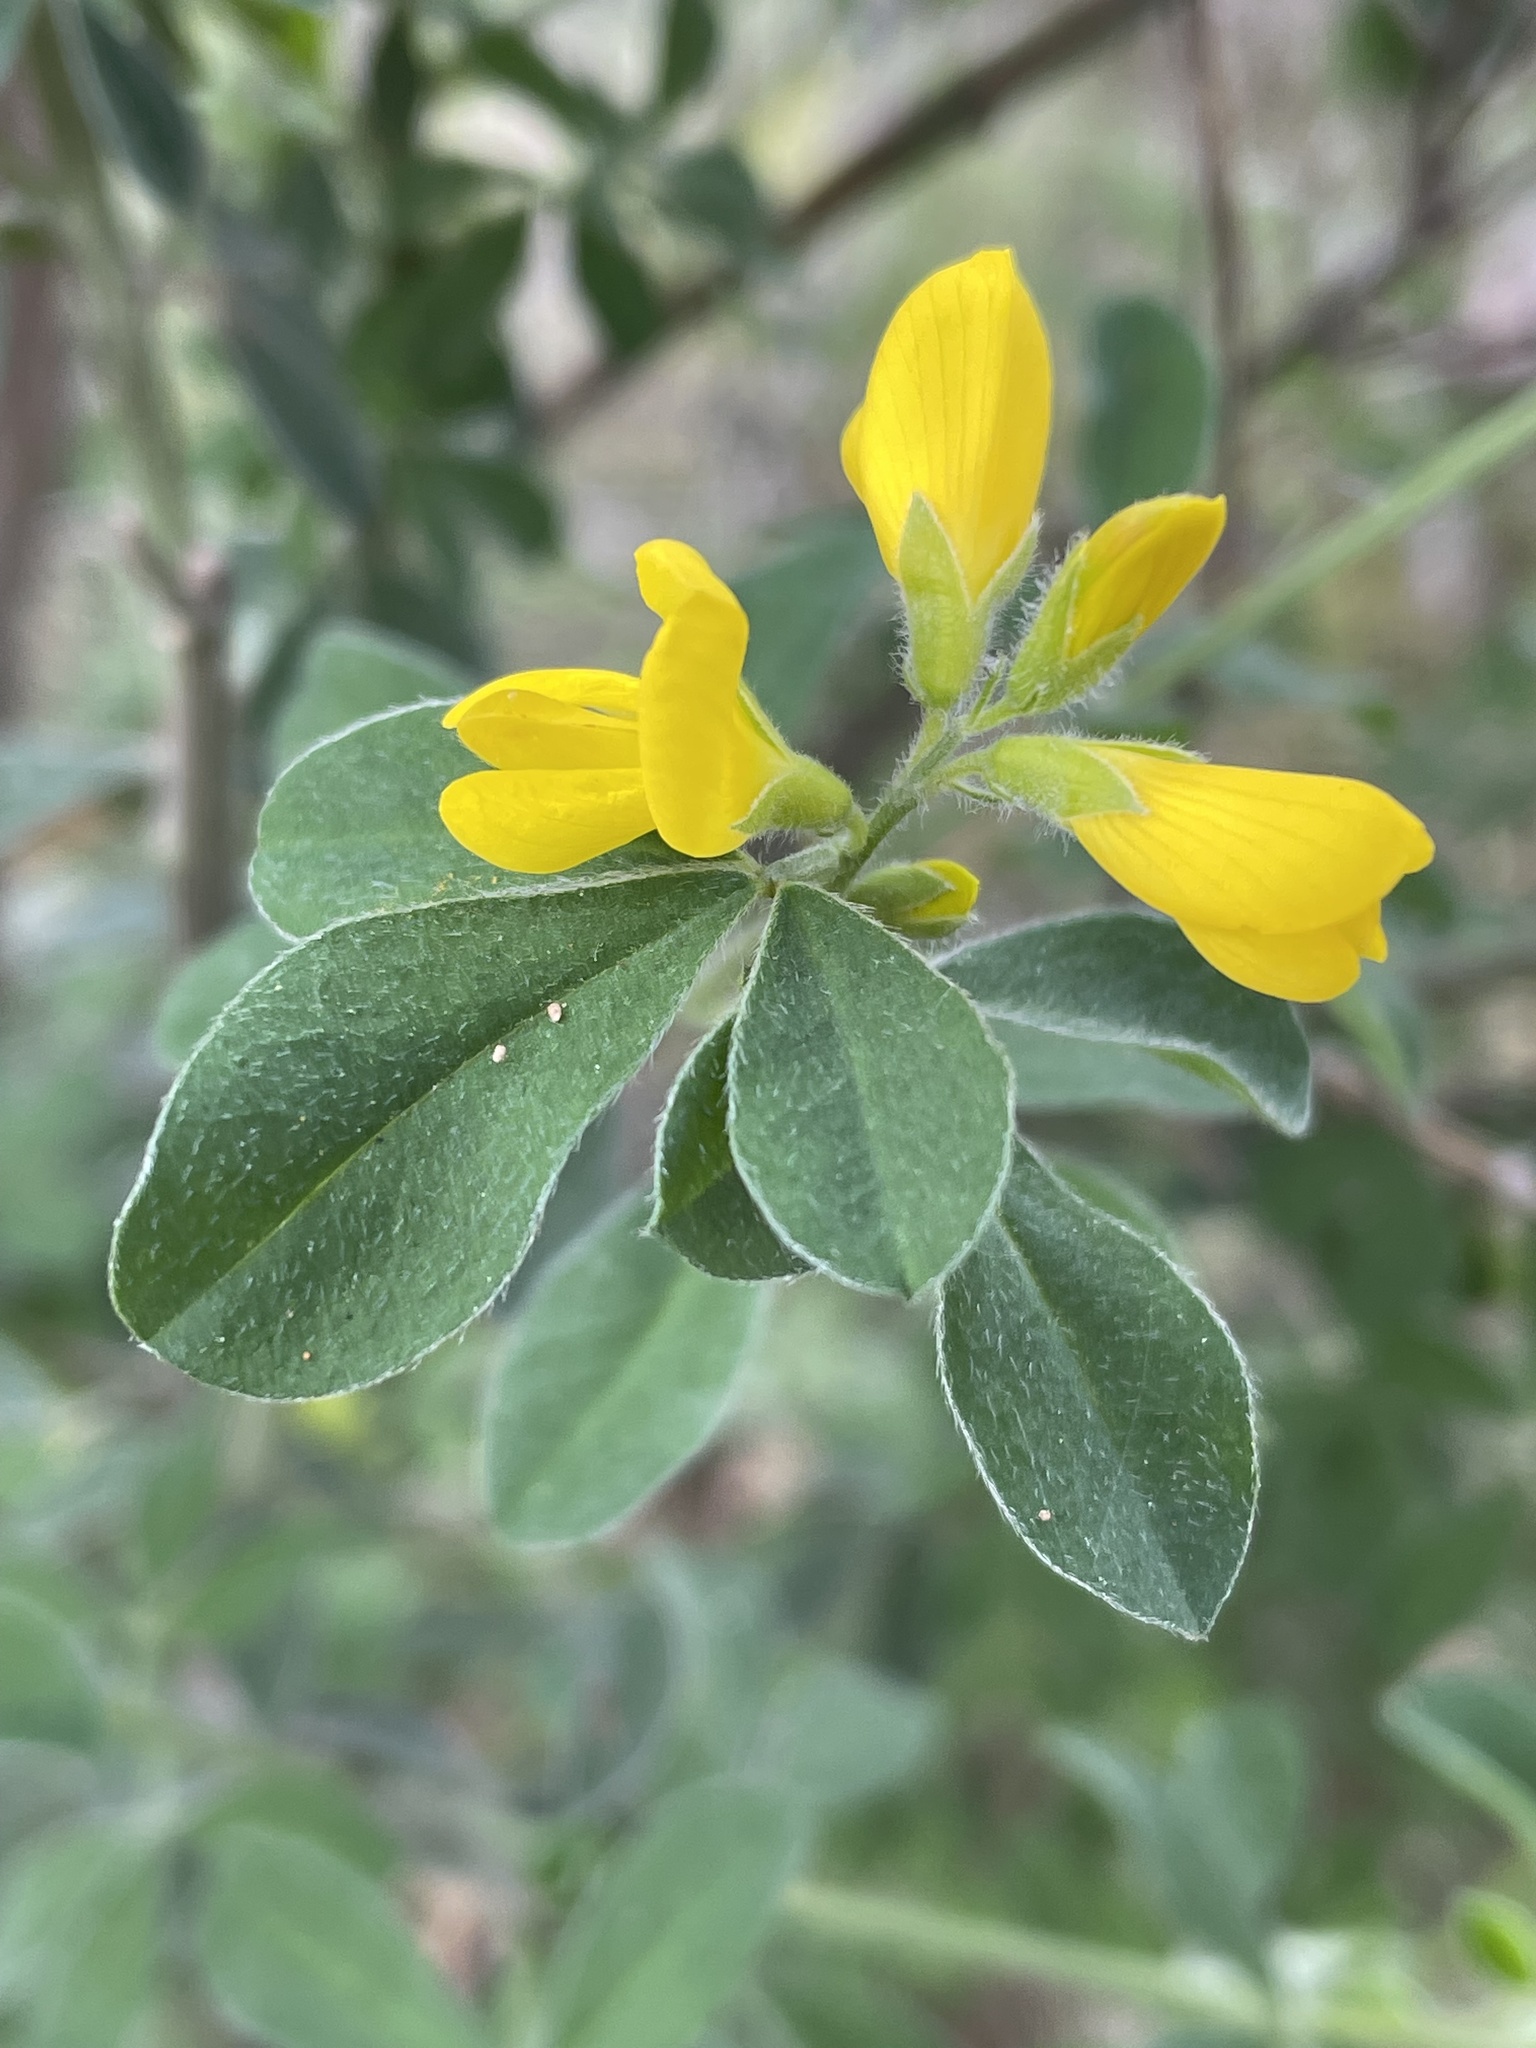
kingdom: Plantae
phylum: Tracheophyta
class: Magnoliopsida
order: Fabales
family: Fabaceae
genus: Genista
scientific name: Genista monspessulana
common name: Montpellier broom
